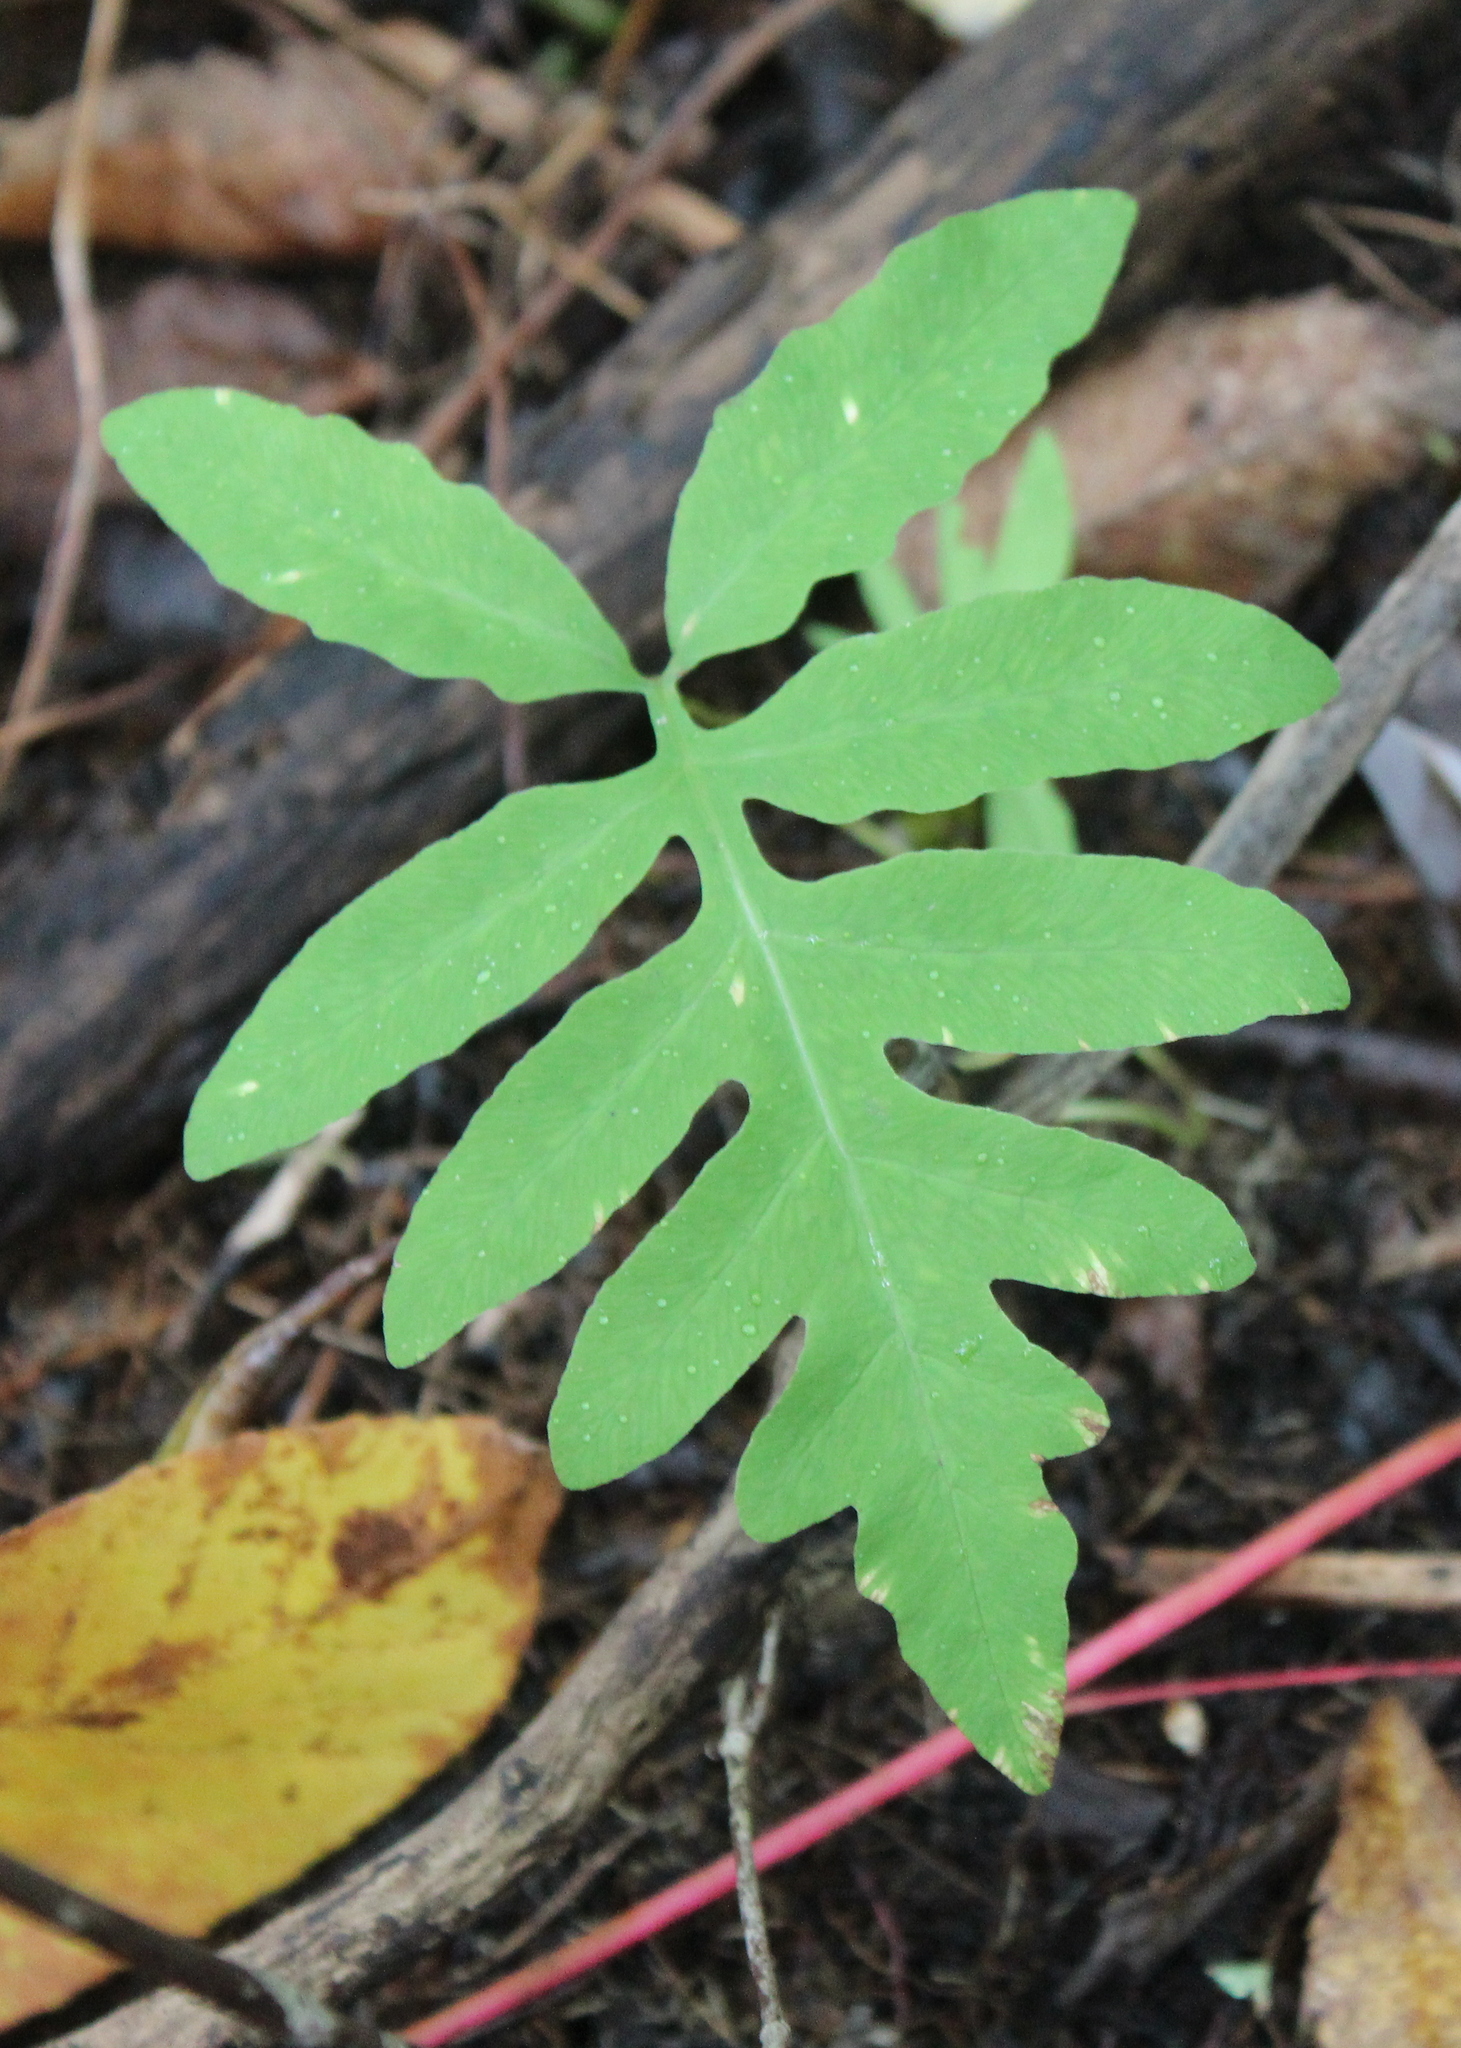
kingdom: Plantae
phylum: Tracheophyta
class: Polypodiopsida
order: Polypodiales
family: Onocleaceae
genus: Onoclea
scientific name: Onoclea sensibilis
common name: Sensitive fern
